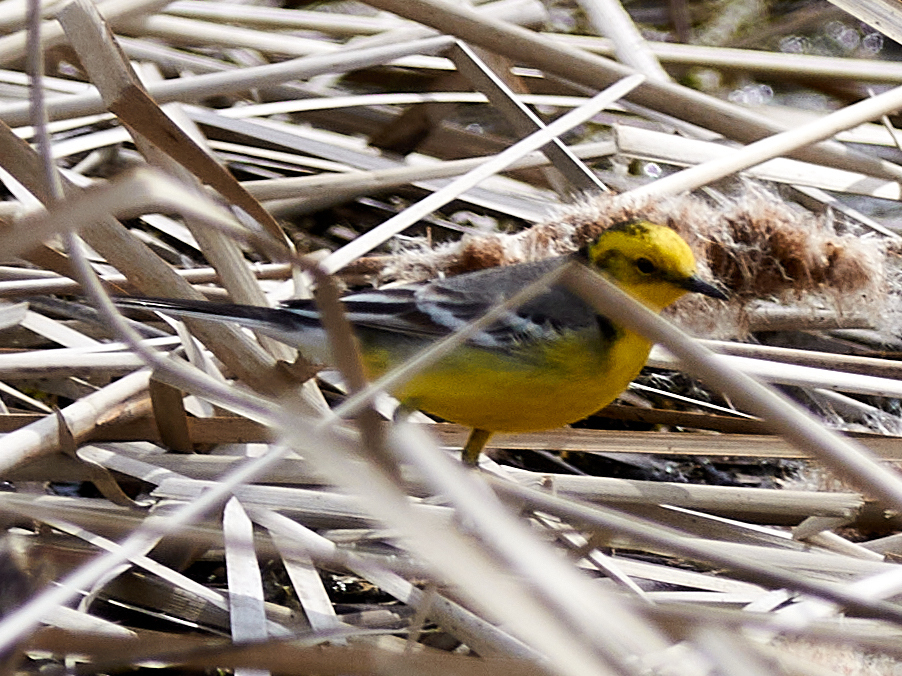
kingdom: Animalia
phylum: Chordata
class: Aves
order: Passeriformes
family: Motacillidae
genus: Motacilla
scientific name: Motacilla citreola
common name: Citrine wagtail
